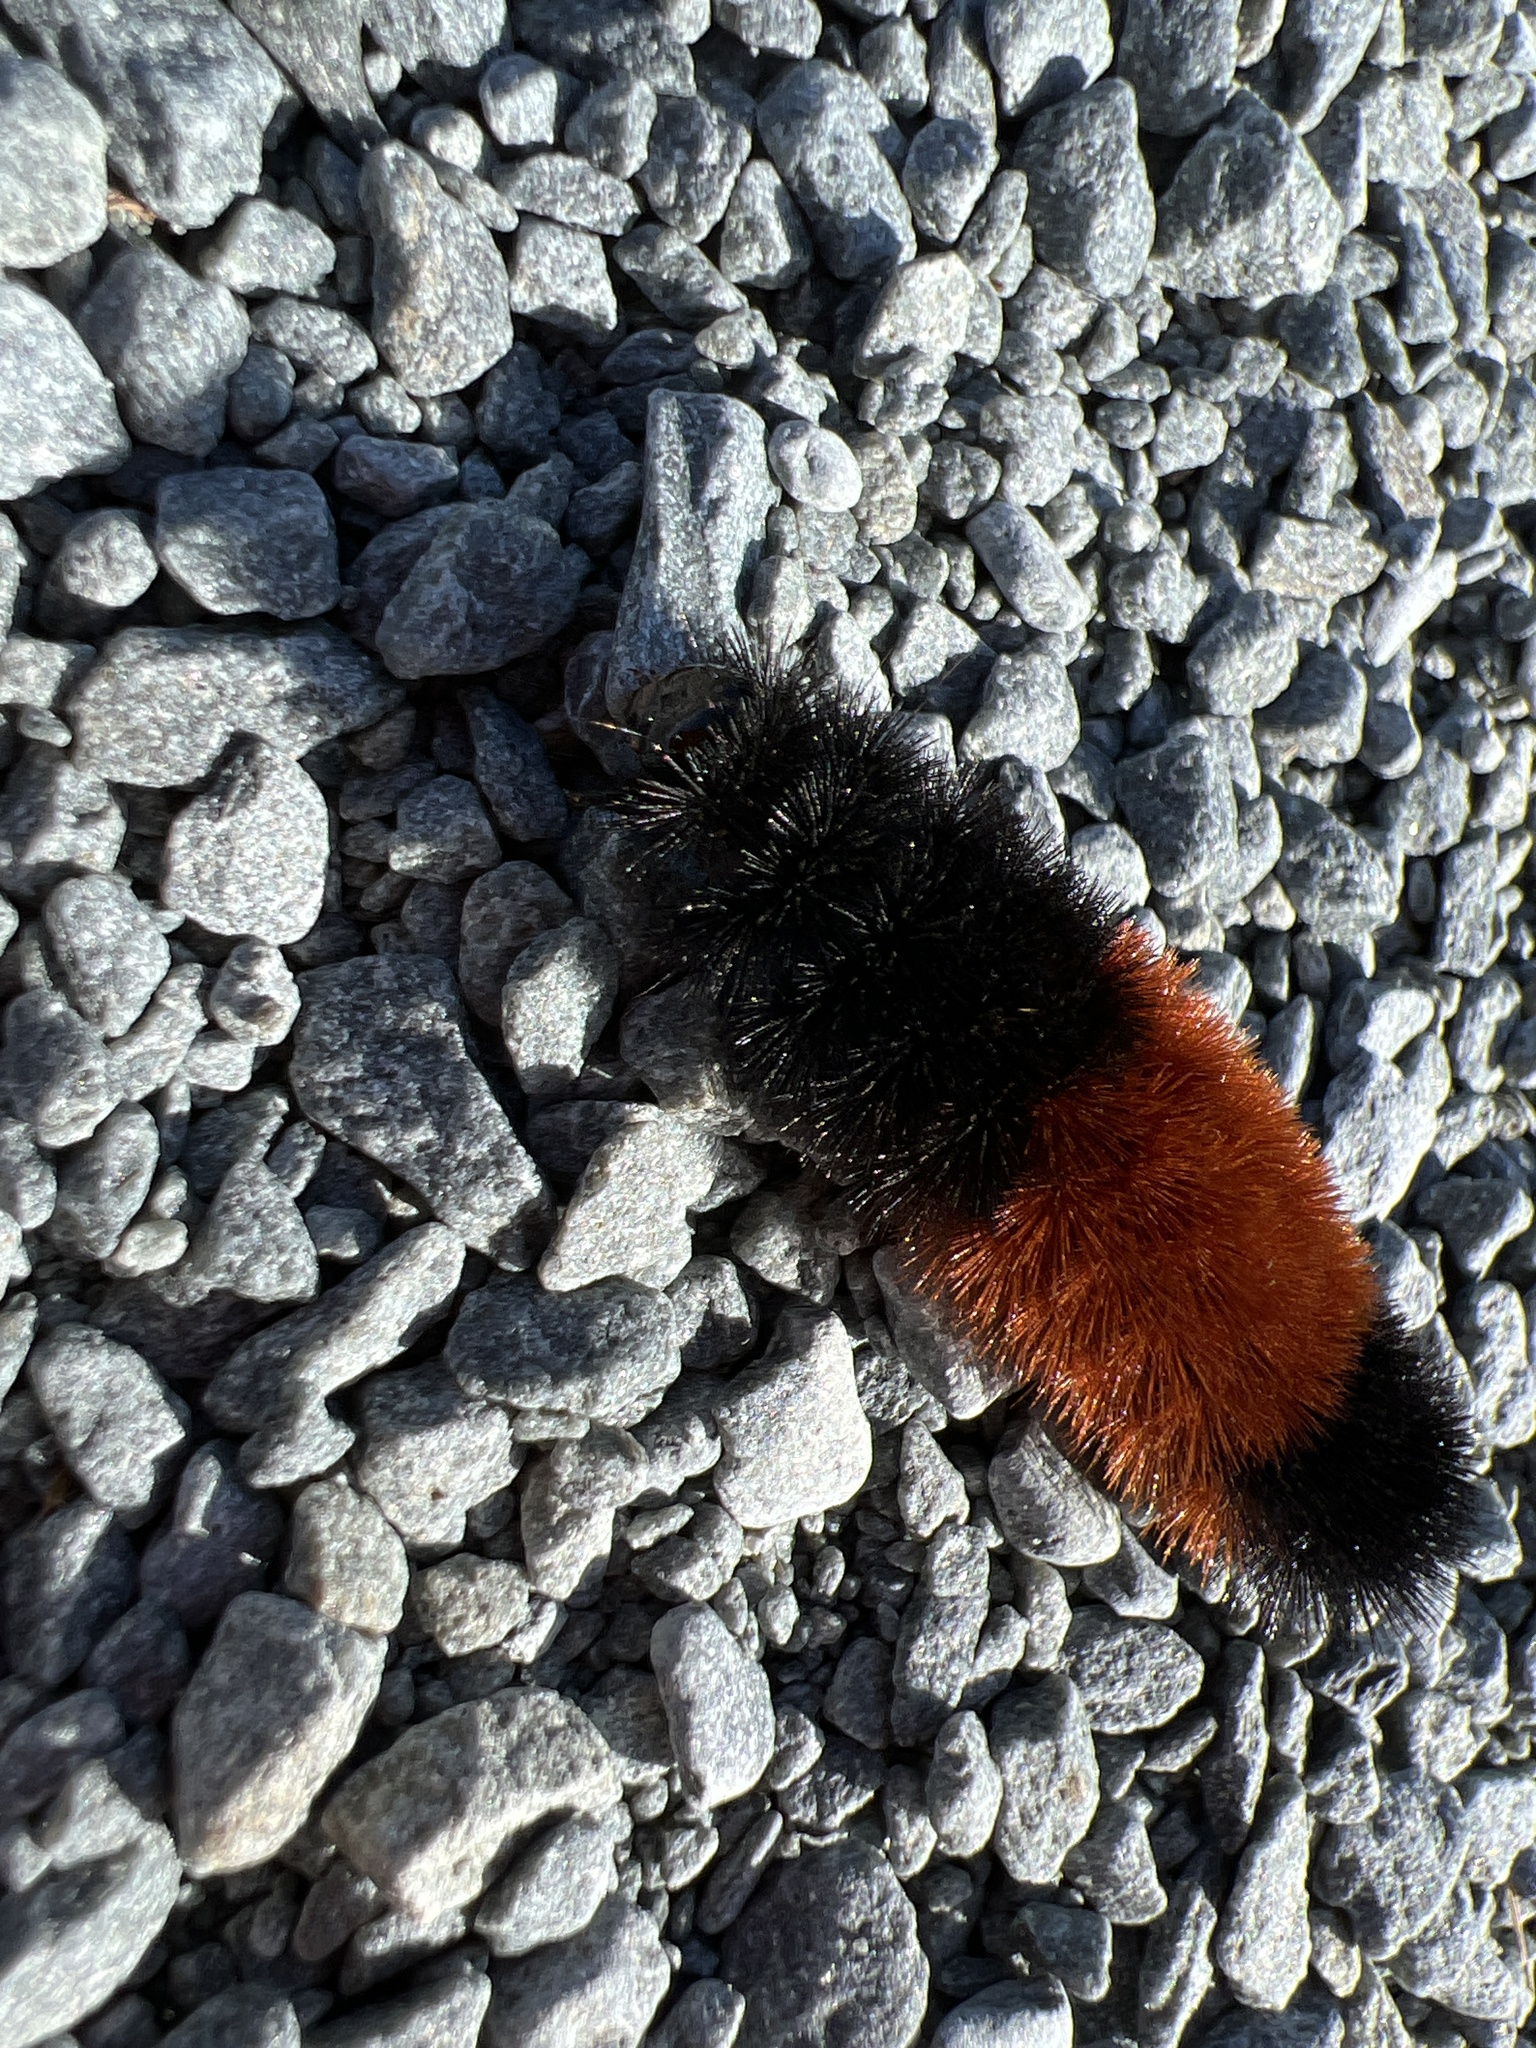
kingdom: Animalia
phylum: Arthropoda
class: Insecta
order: Lepidoptera
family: Erebidae
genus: Pyrrharctia
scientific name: Pyrrharctia isabella
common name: Isabella tiger moth
